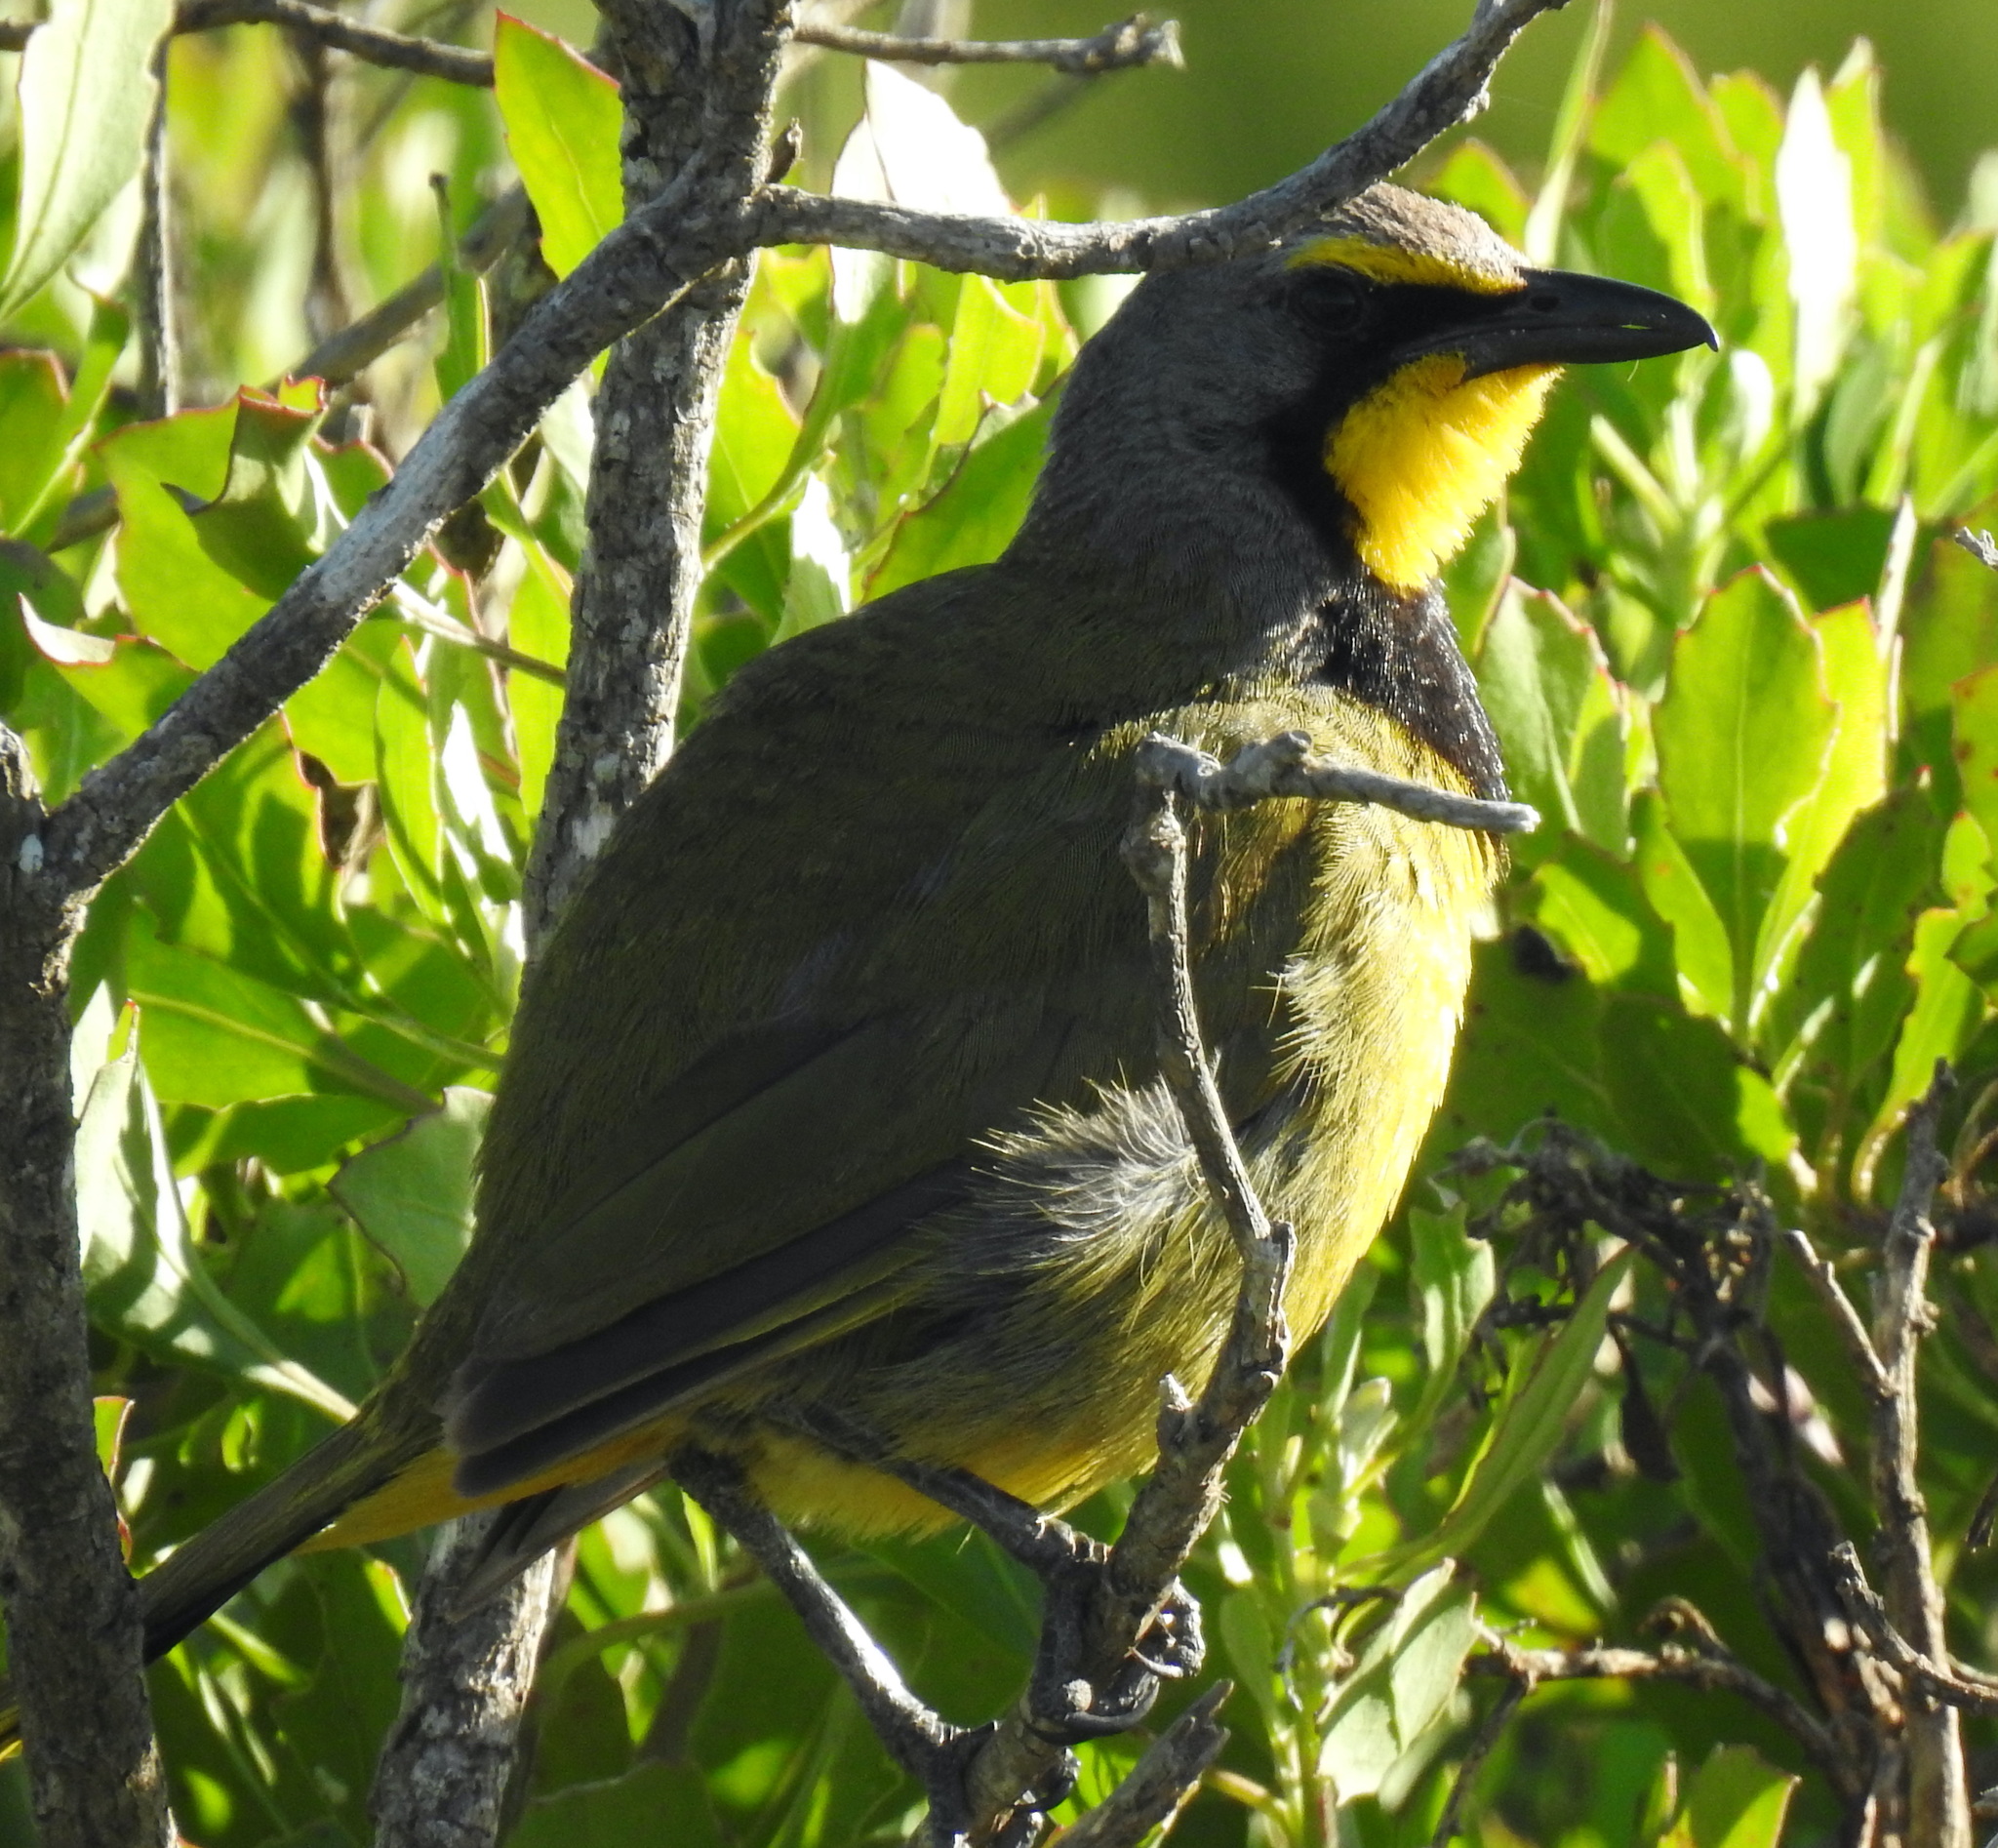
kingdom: Animalia
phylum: Chordata
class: Aves
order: Passeriformes
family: Malaconotidae
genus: Telophorus
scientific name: Telophorus zeylonus
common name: Bokmakierie
